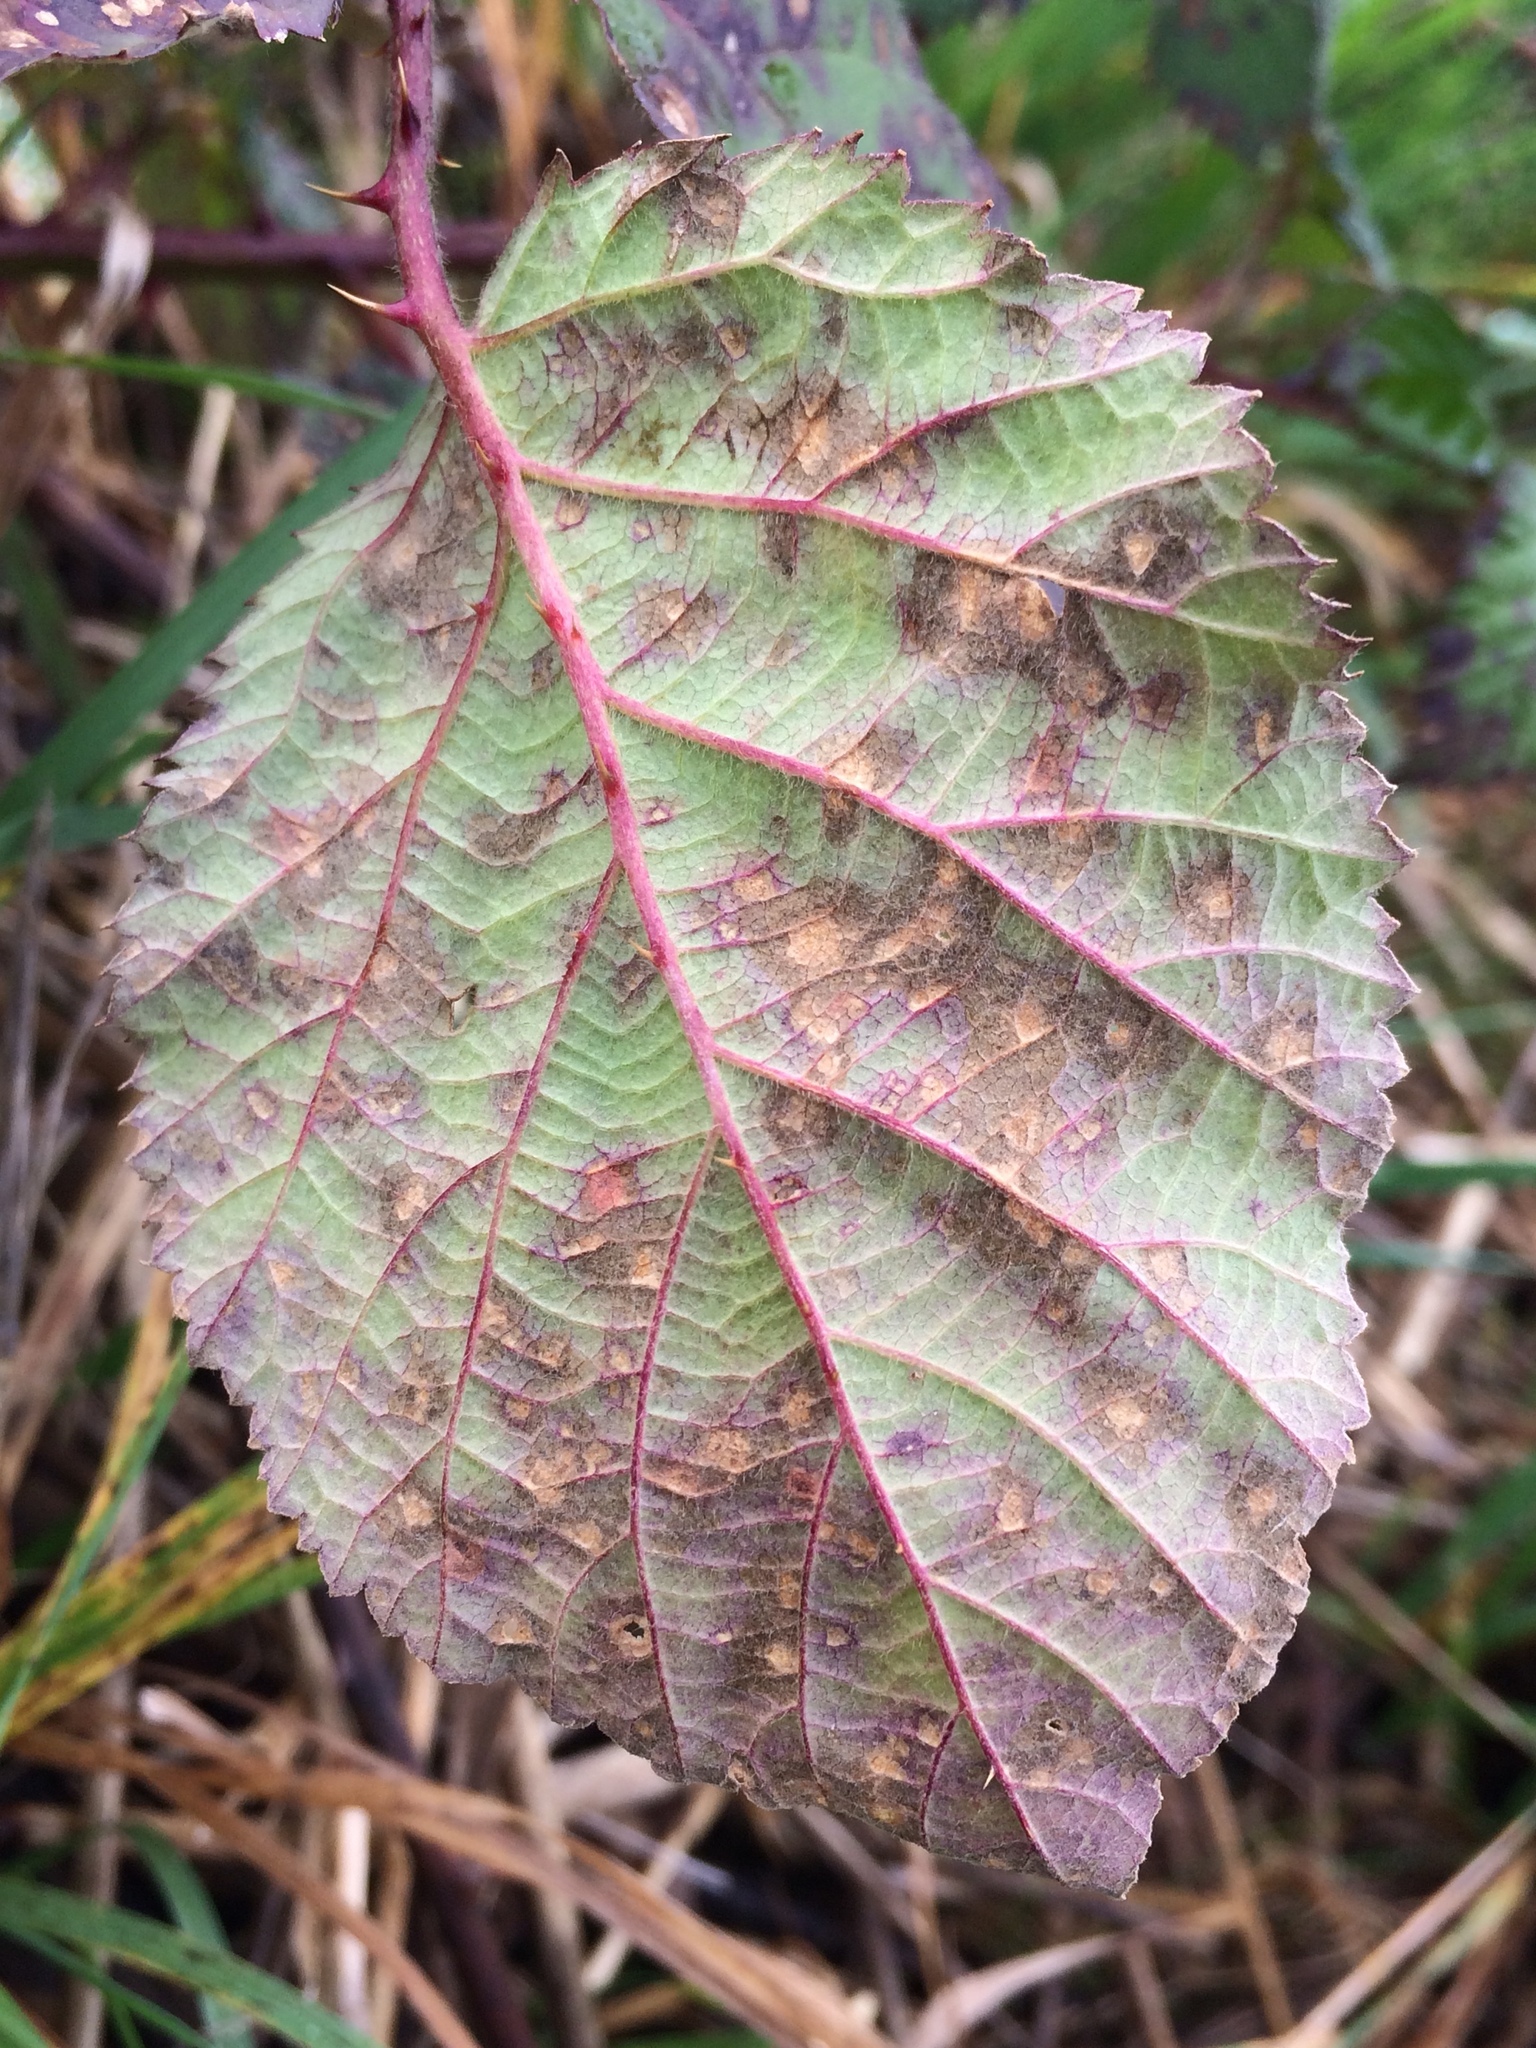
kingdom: Fungi
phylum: Basidiomycota
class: Pucciniomycetes
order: Pucciniales
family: Phragmidiaceae
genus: Phragmidium
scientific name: Phragmidium violaceum
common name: Violet bramble rust
